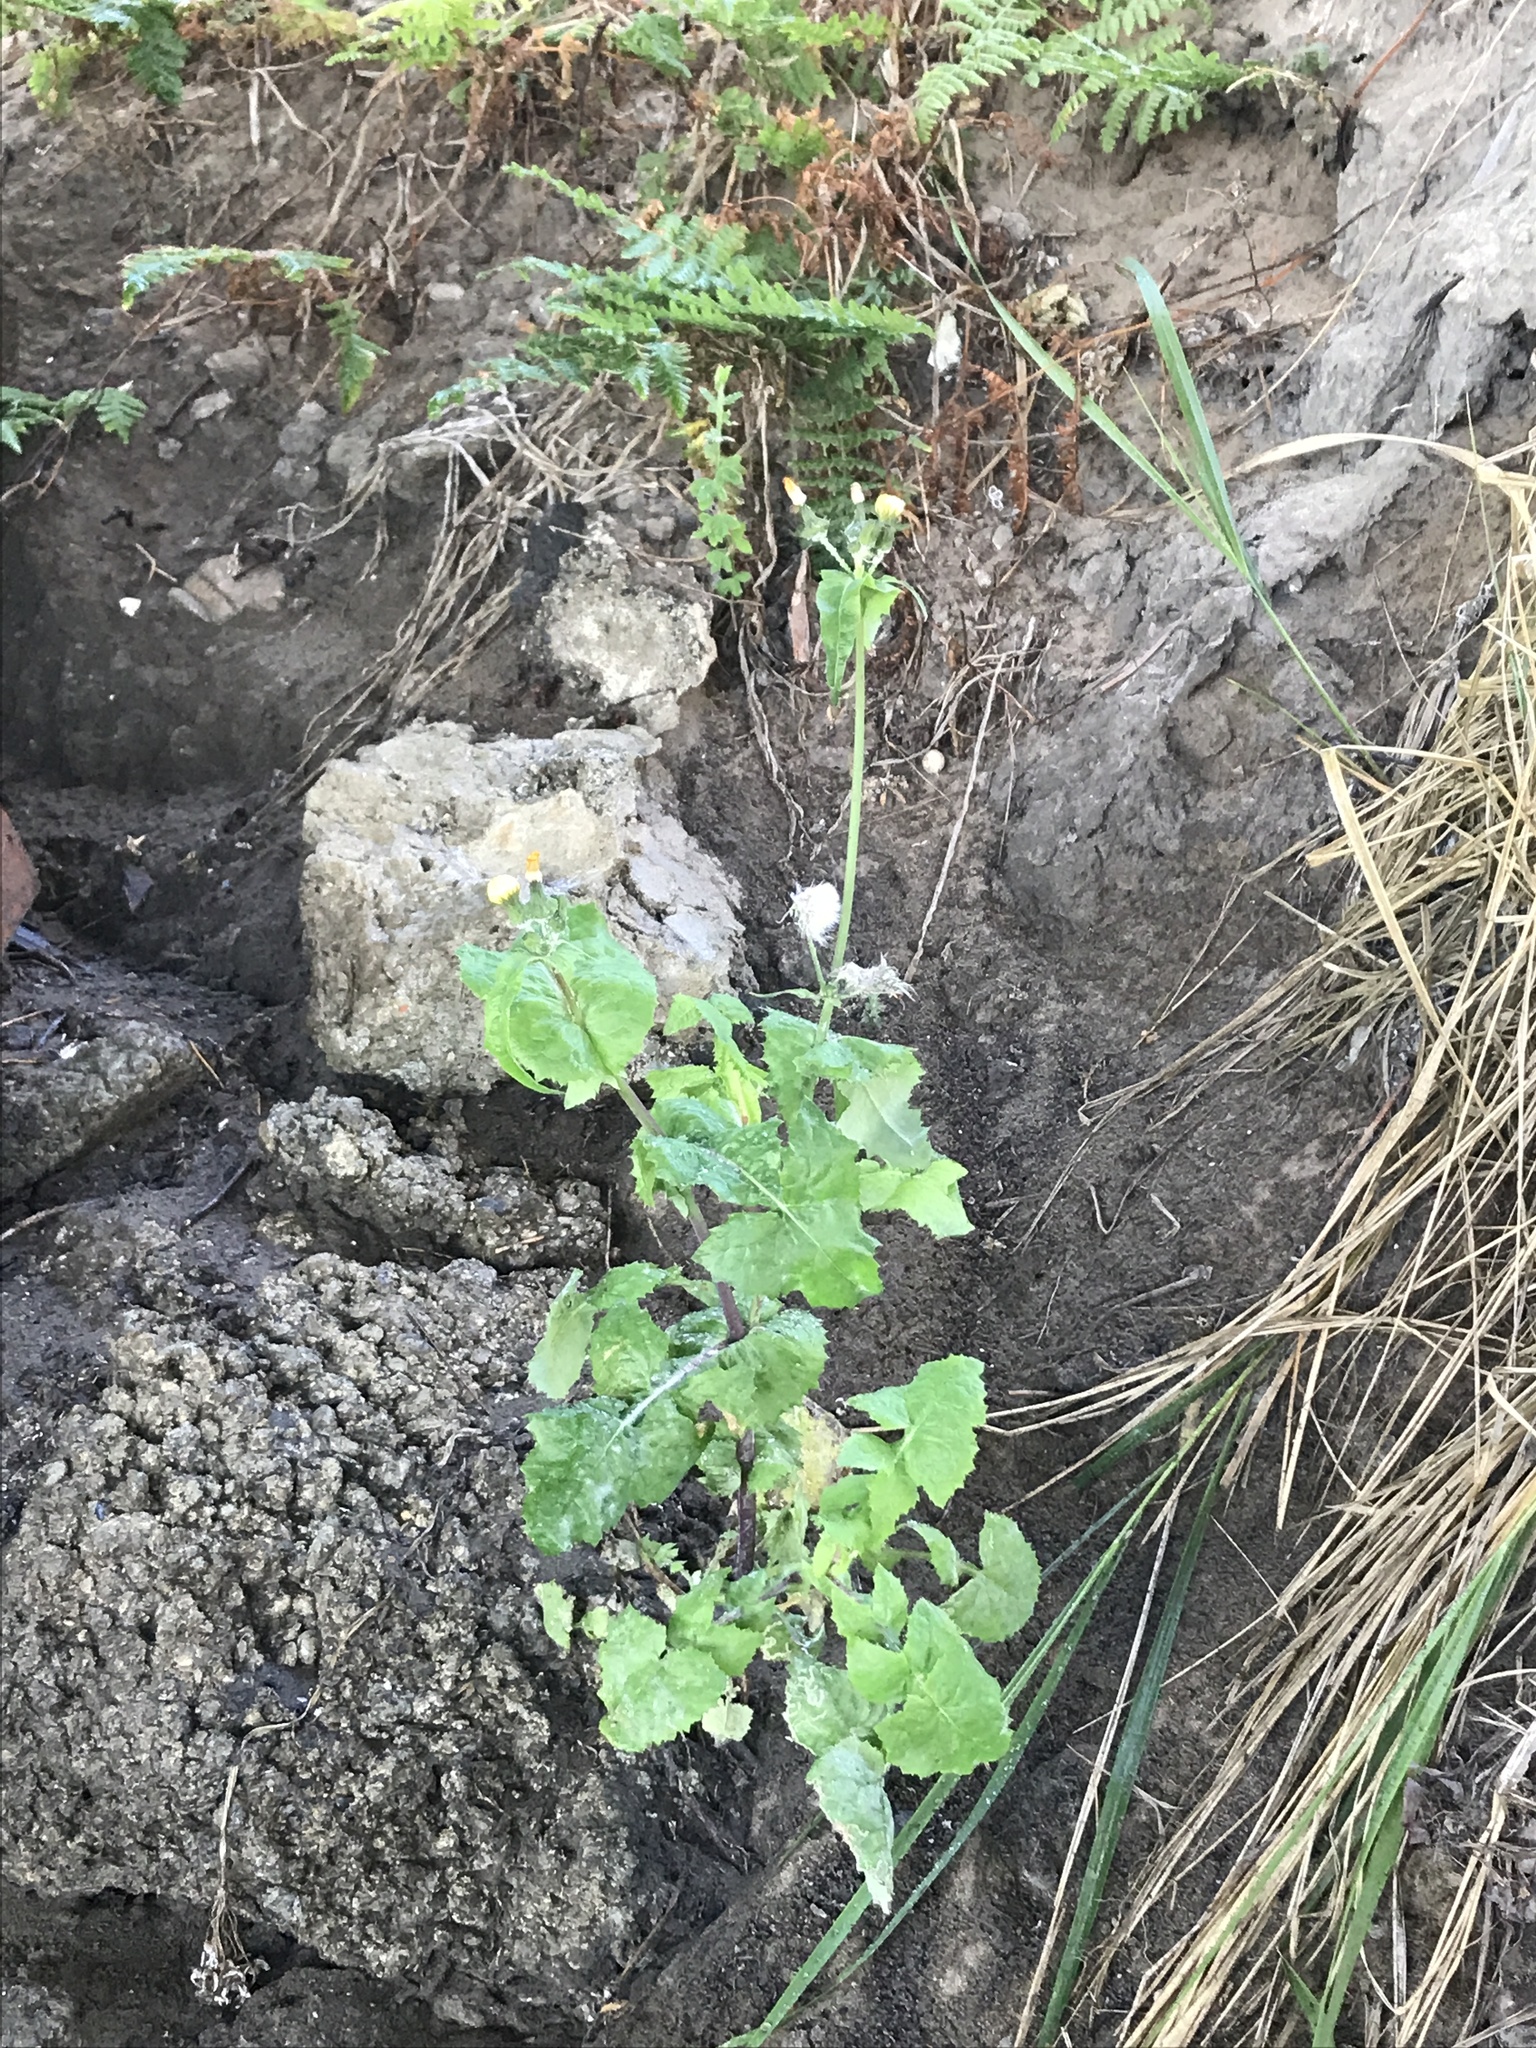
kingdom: Plantae
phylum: Tracheophyta
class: Magnoliopsida
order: Asterales
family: Asteraceae
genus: Sonchus
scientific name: Sonchus oleraceus
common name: Common sowthistle
